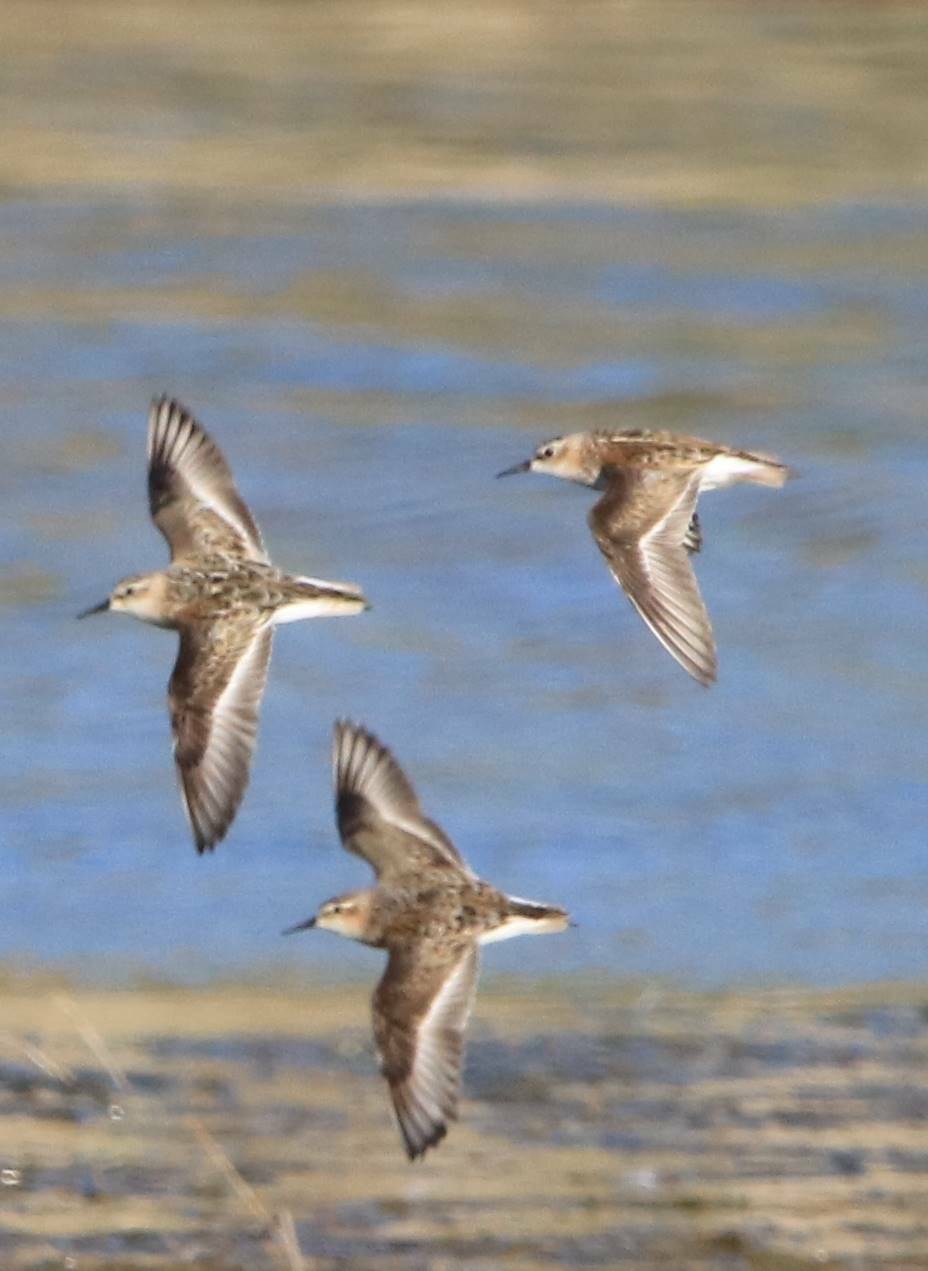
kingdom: Animalia
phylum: Chordata
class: Aves
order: Charadriiformes
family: Scolopacidae
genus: Calidris
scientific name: Calidris minuta
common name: Little stint
